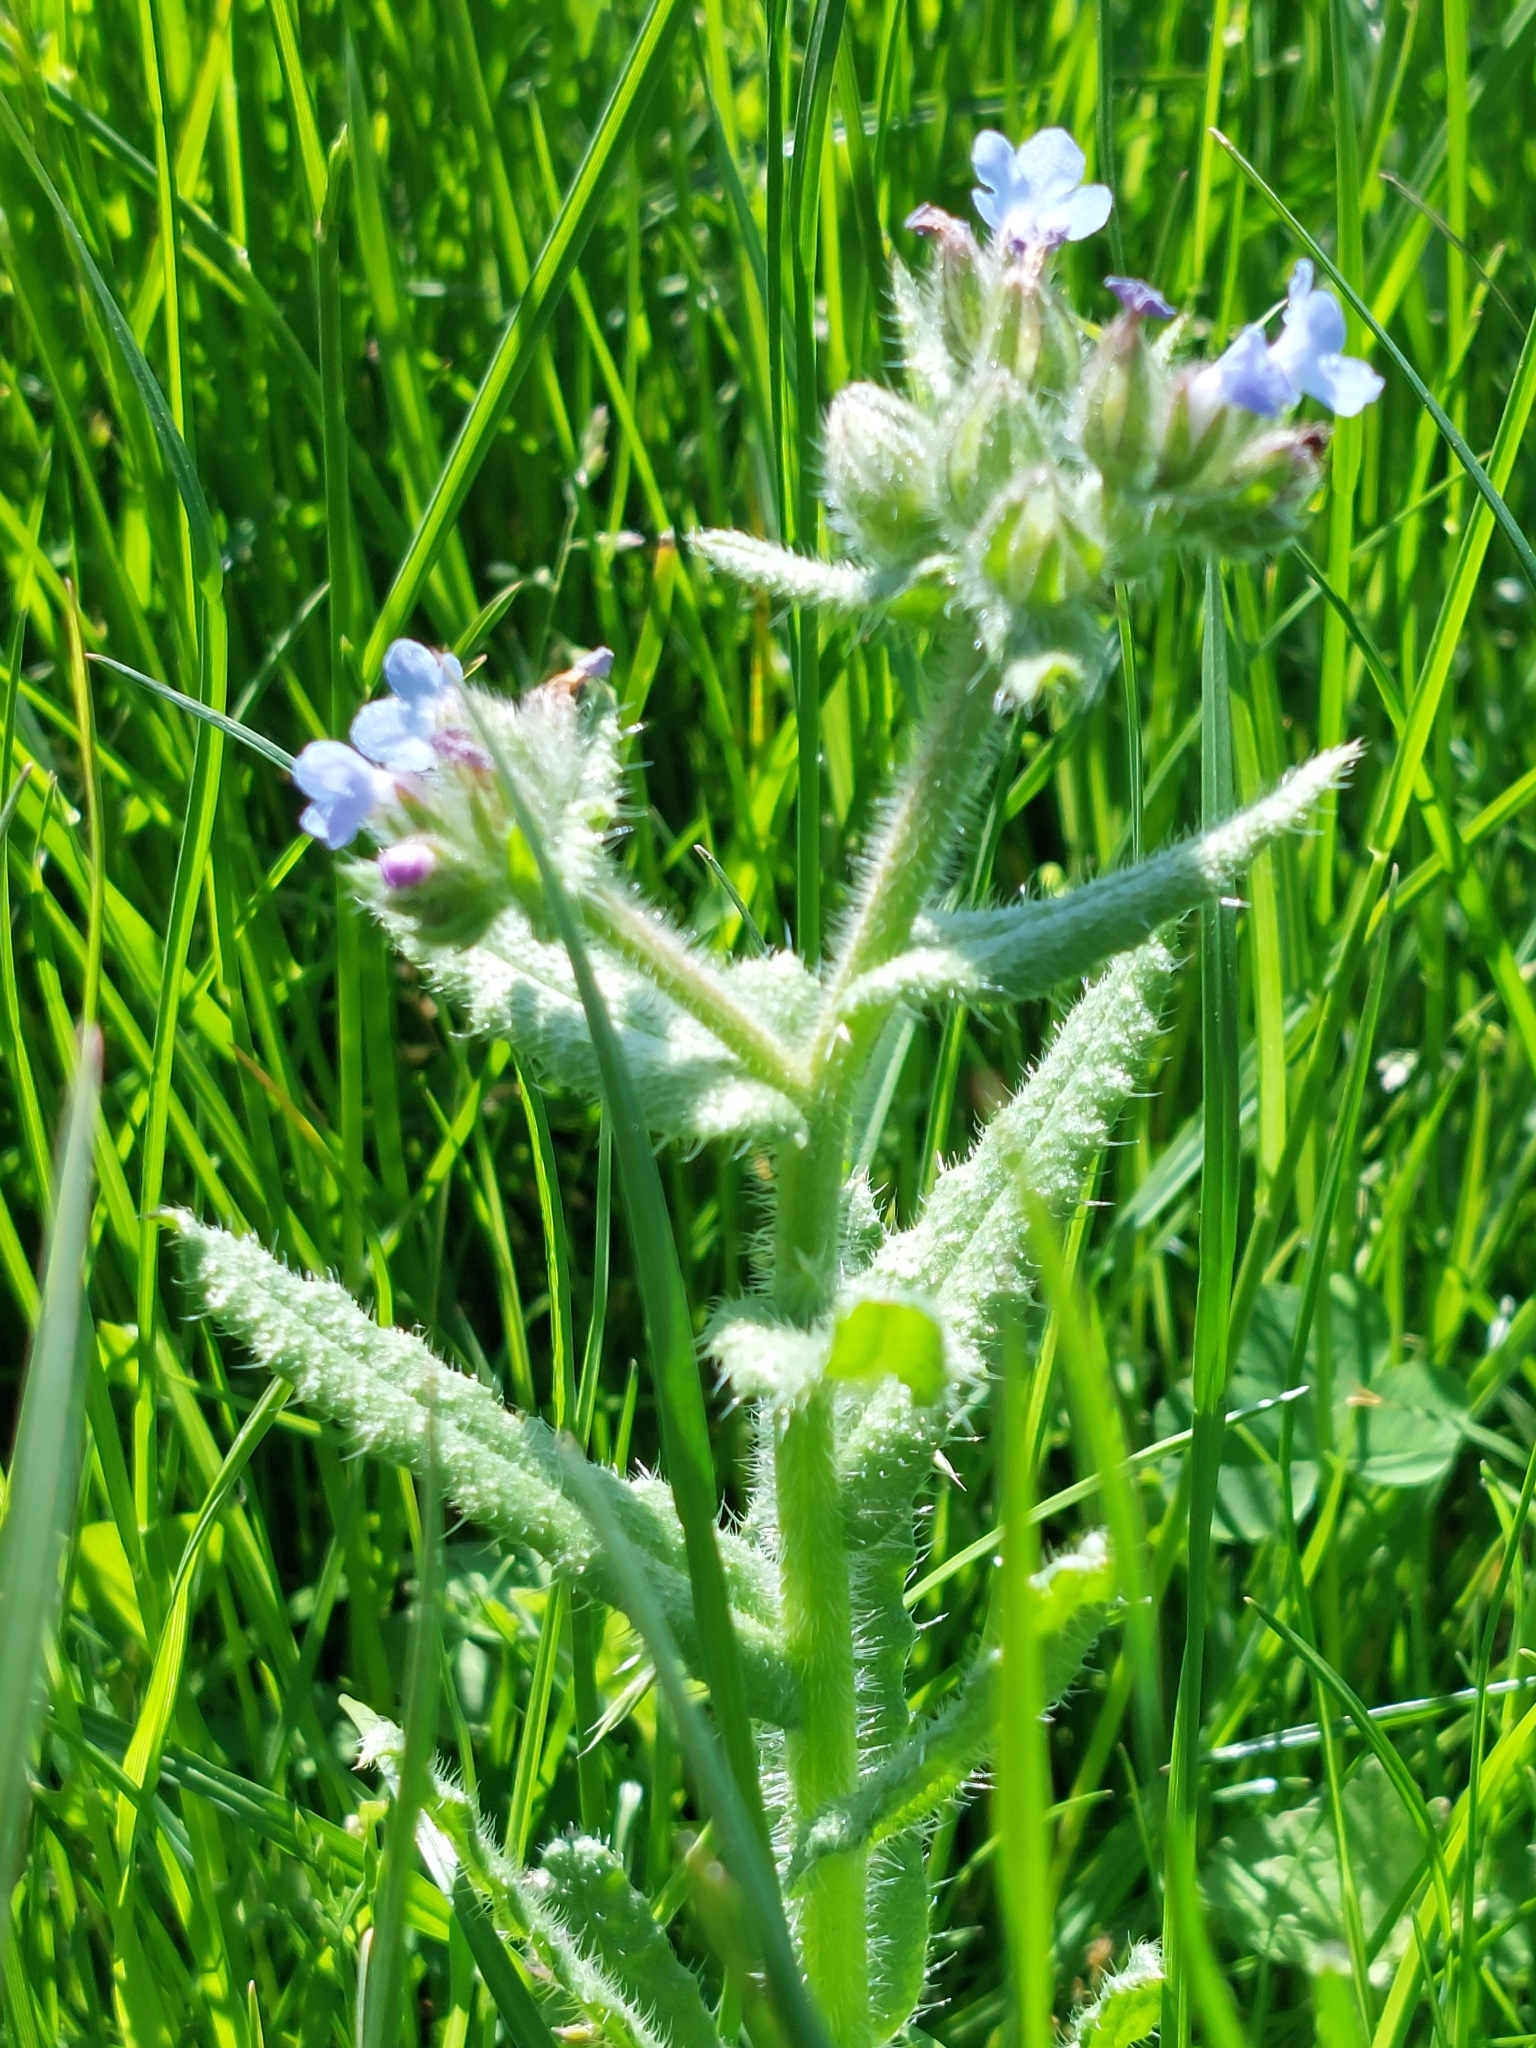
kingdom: Plantae
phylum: Tracheophyta
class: Magnoliopsida
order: Boraginales
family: Boraginaceae
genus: Lycopsis
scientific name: Lycopsis arvensis
